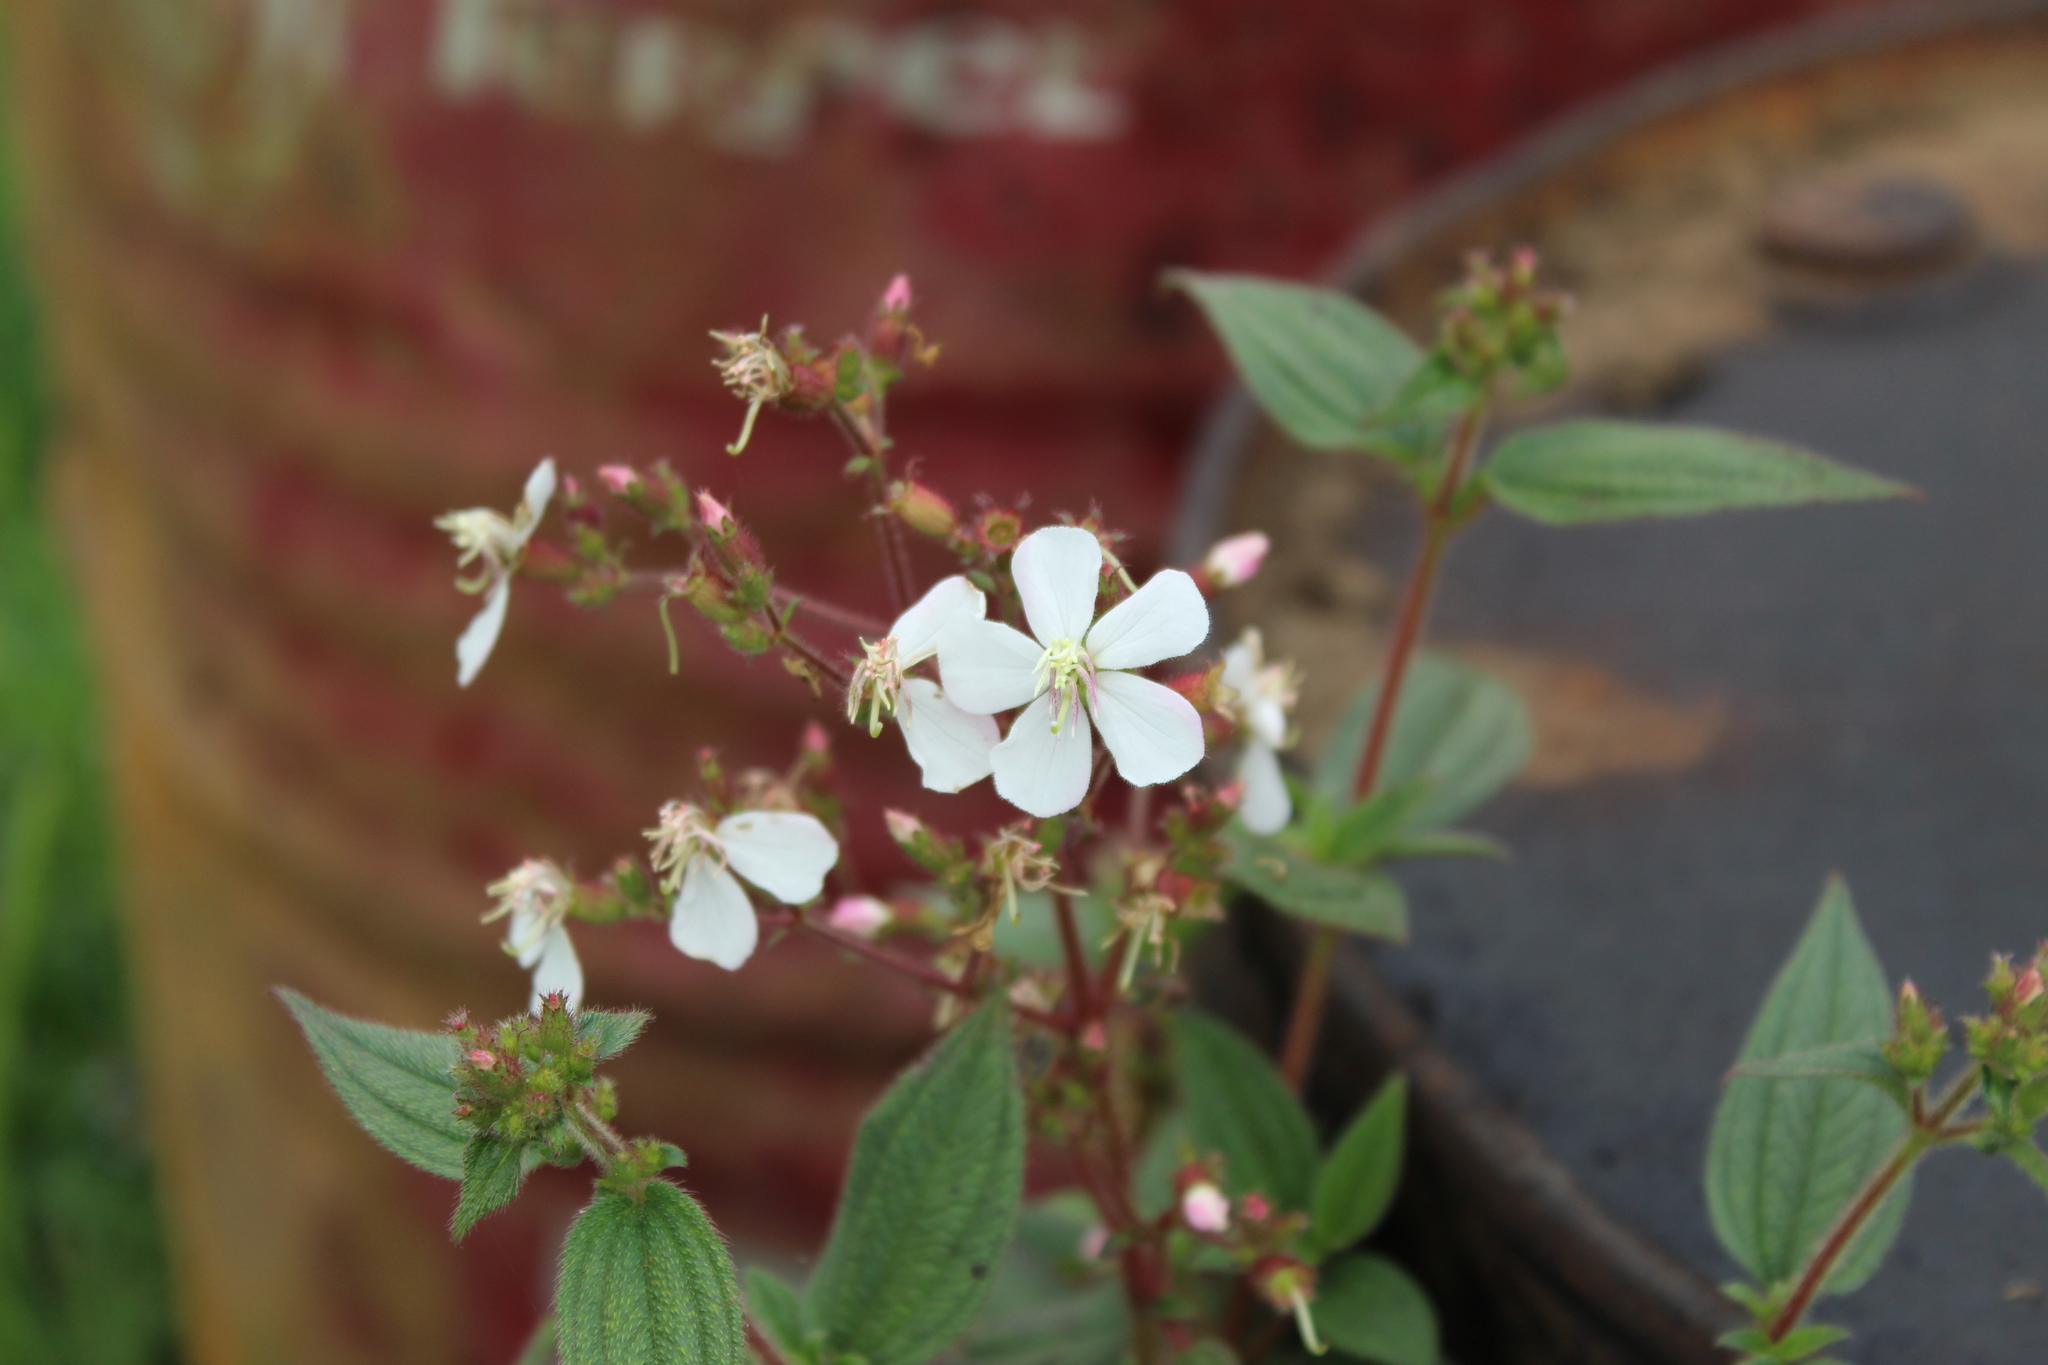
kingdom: Plantae
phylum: Tracheophyta
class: Magnoliopsida
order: Myrtales
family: Melastomataceae
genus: Chaetogastra
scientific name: Chaetogastra ciliaris
